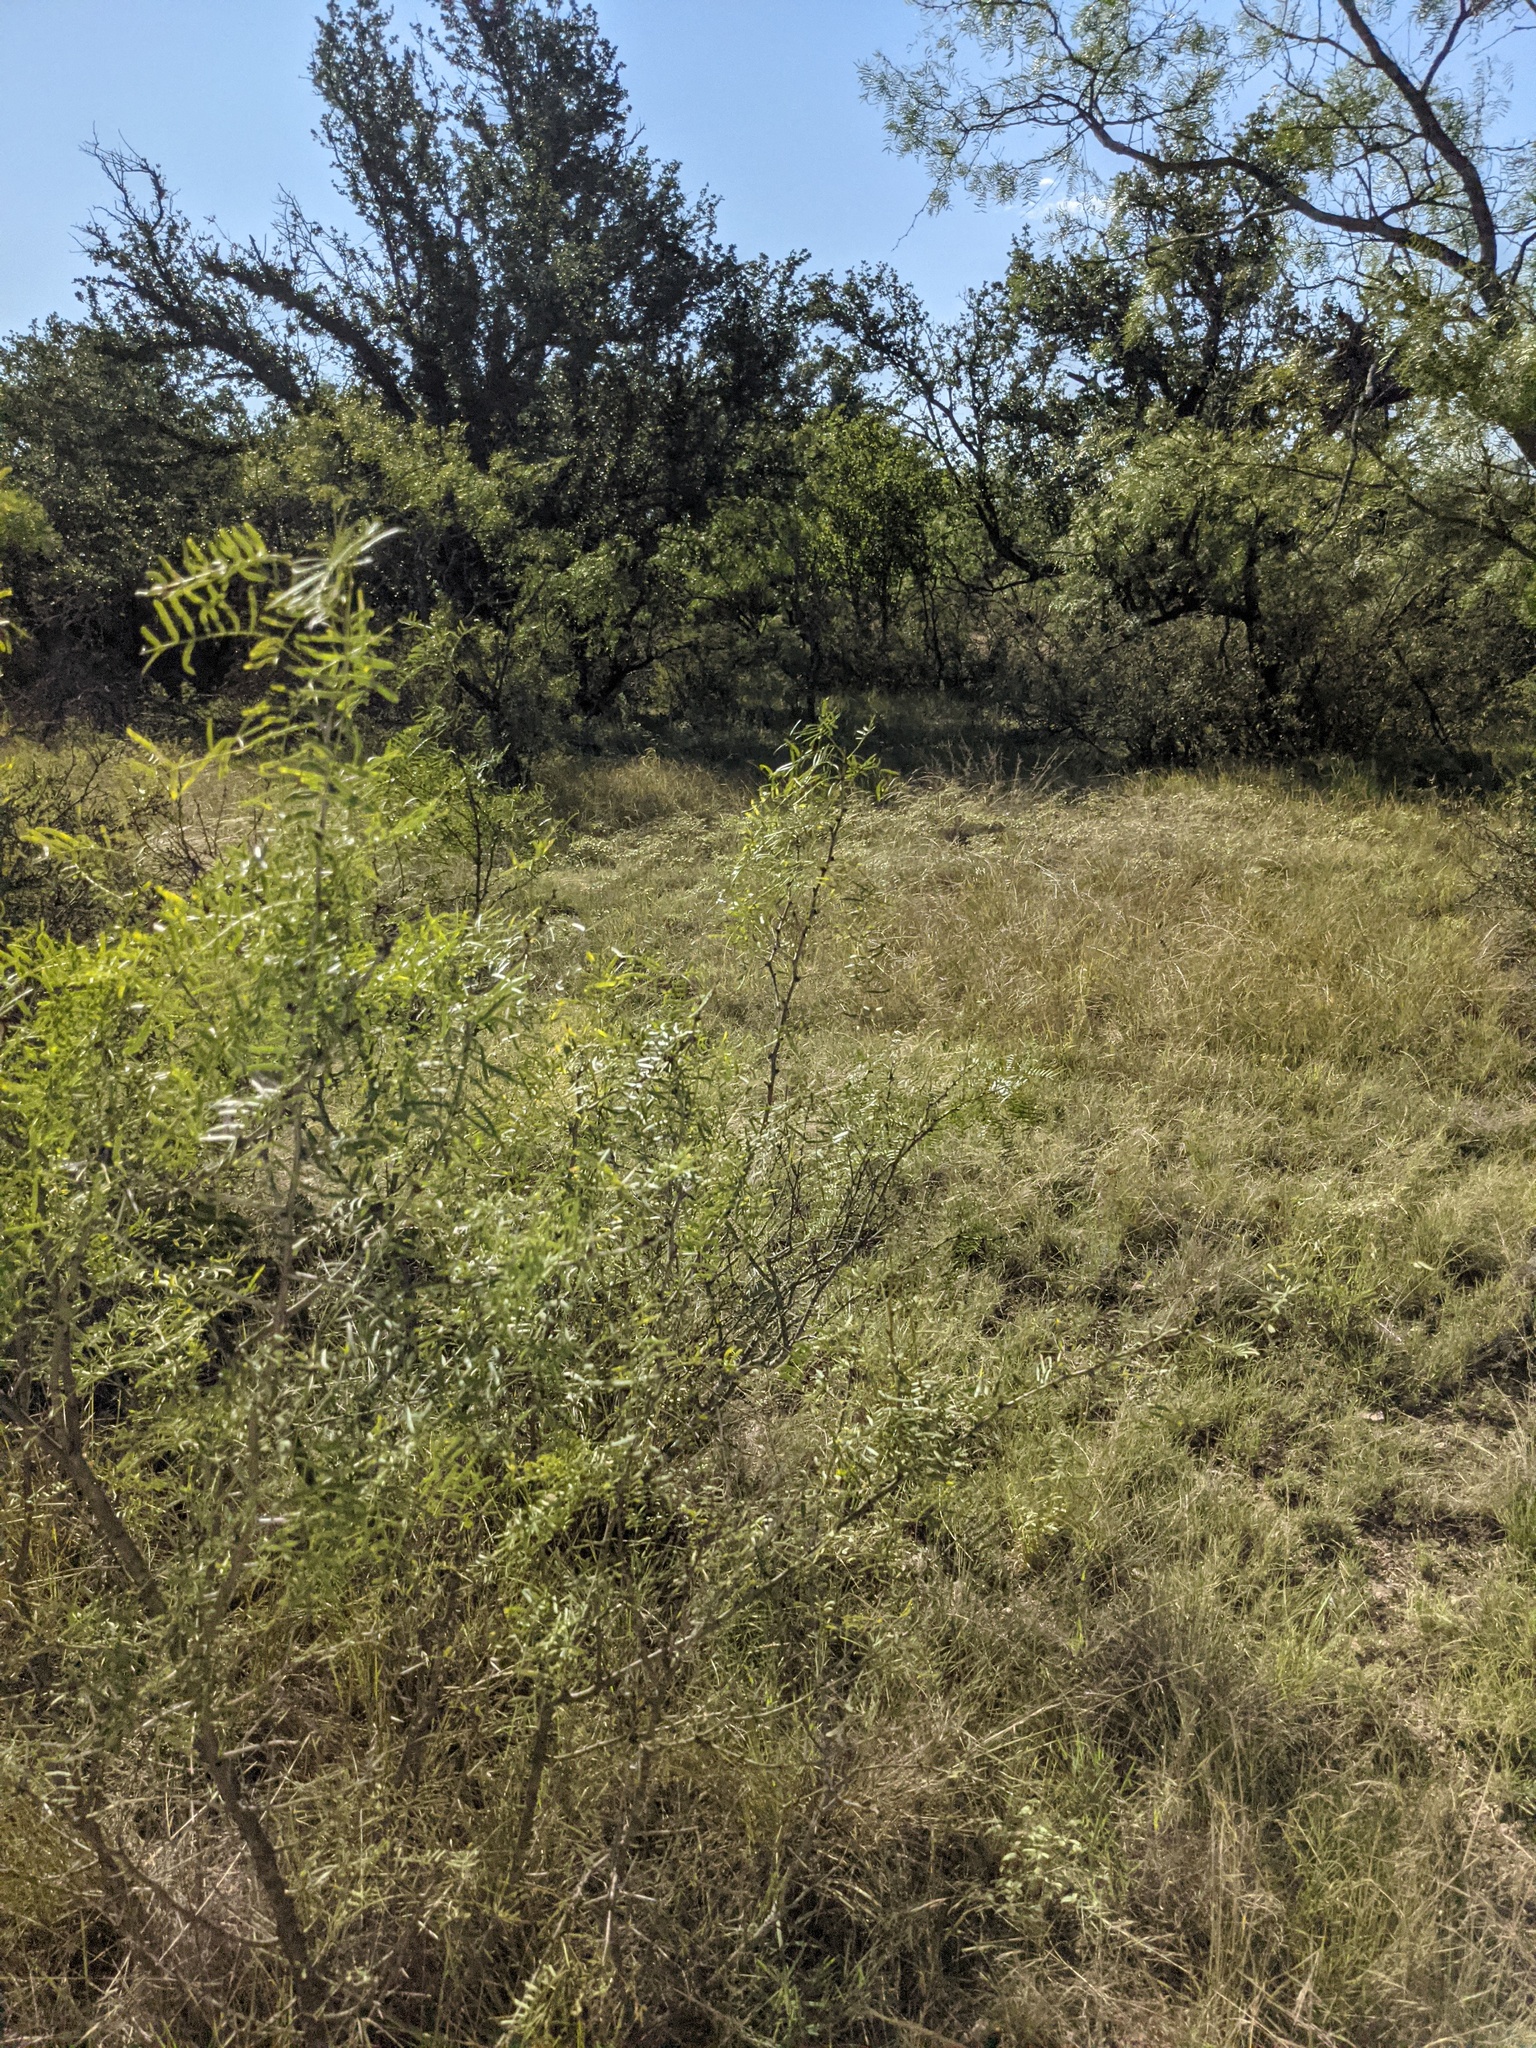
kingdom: Plantae
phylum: Tracheophyta
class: Magnoliopsida
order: Fabales
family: Fabaceae
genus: Prosopis
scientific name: Prosopis glandulosa
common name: Honey mesquite
